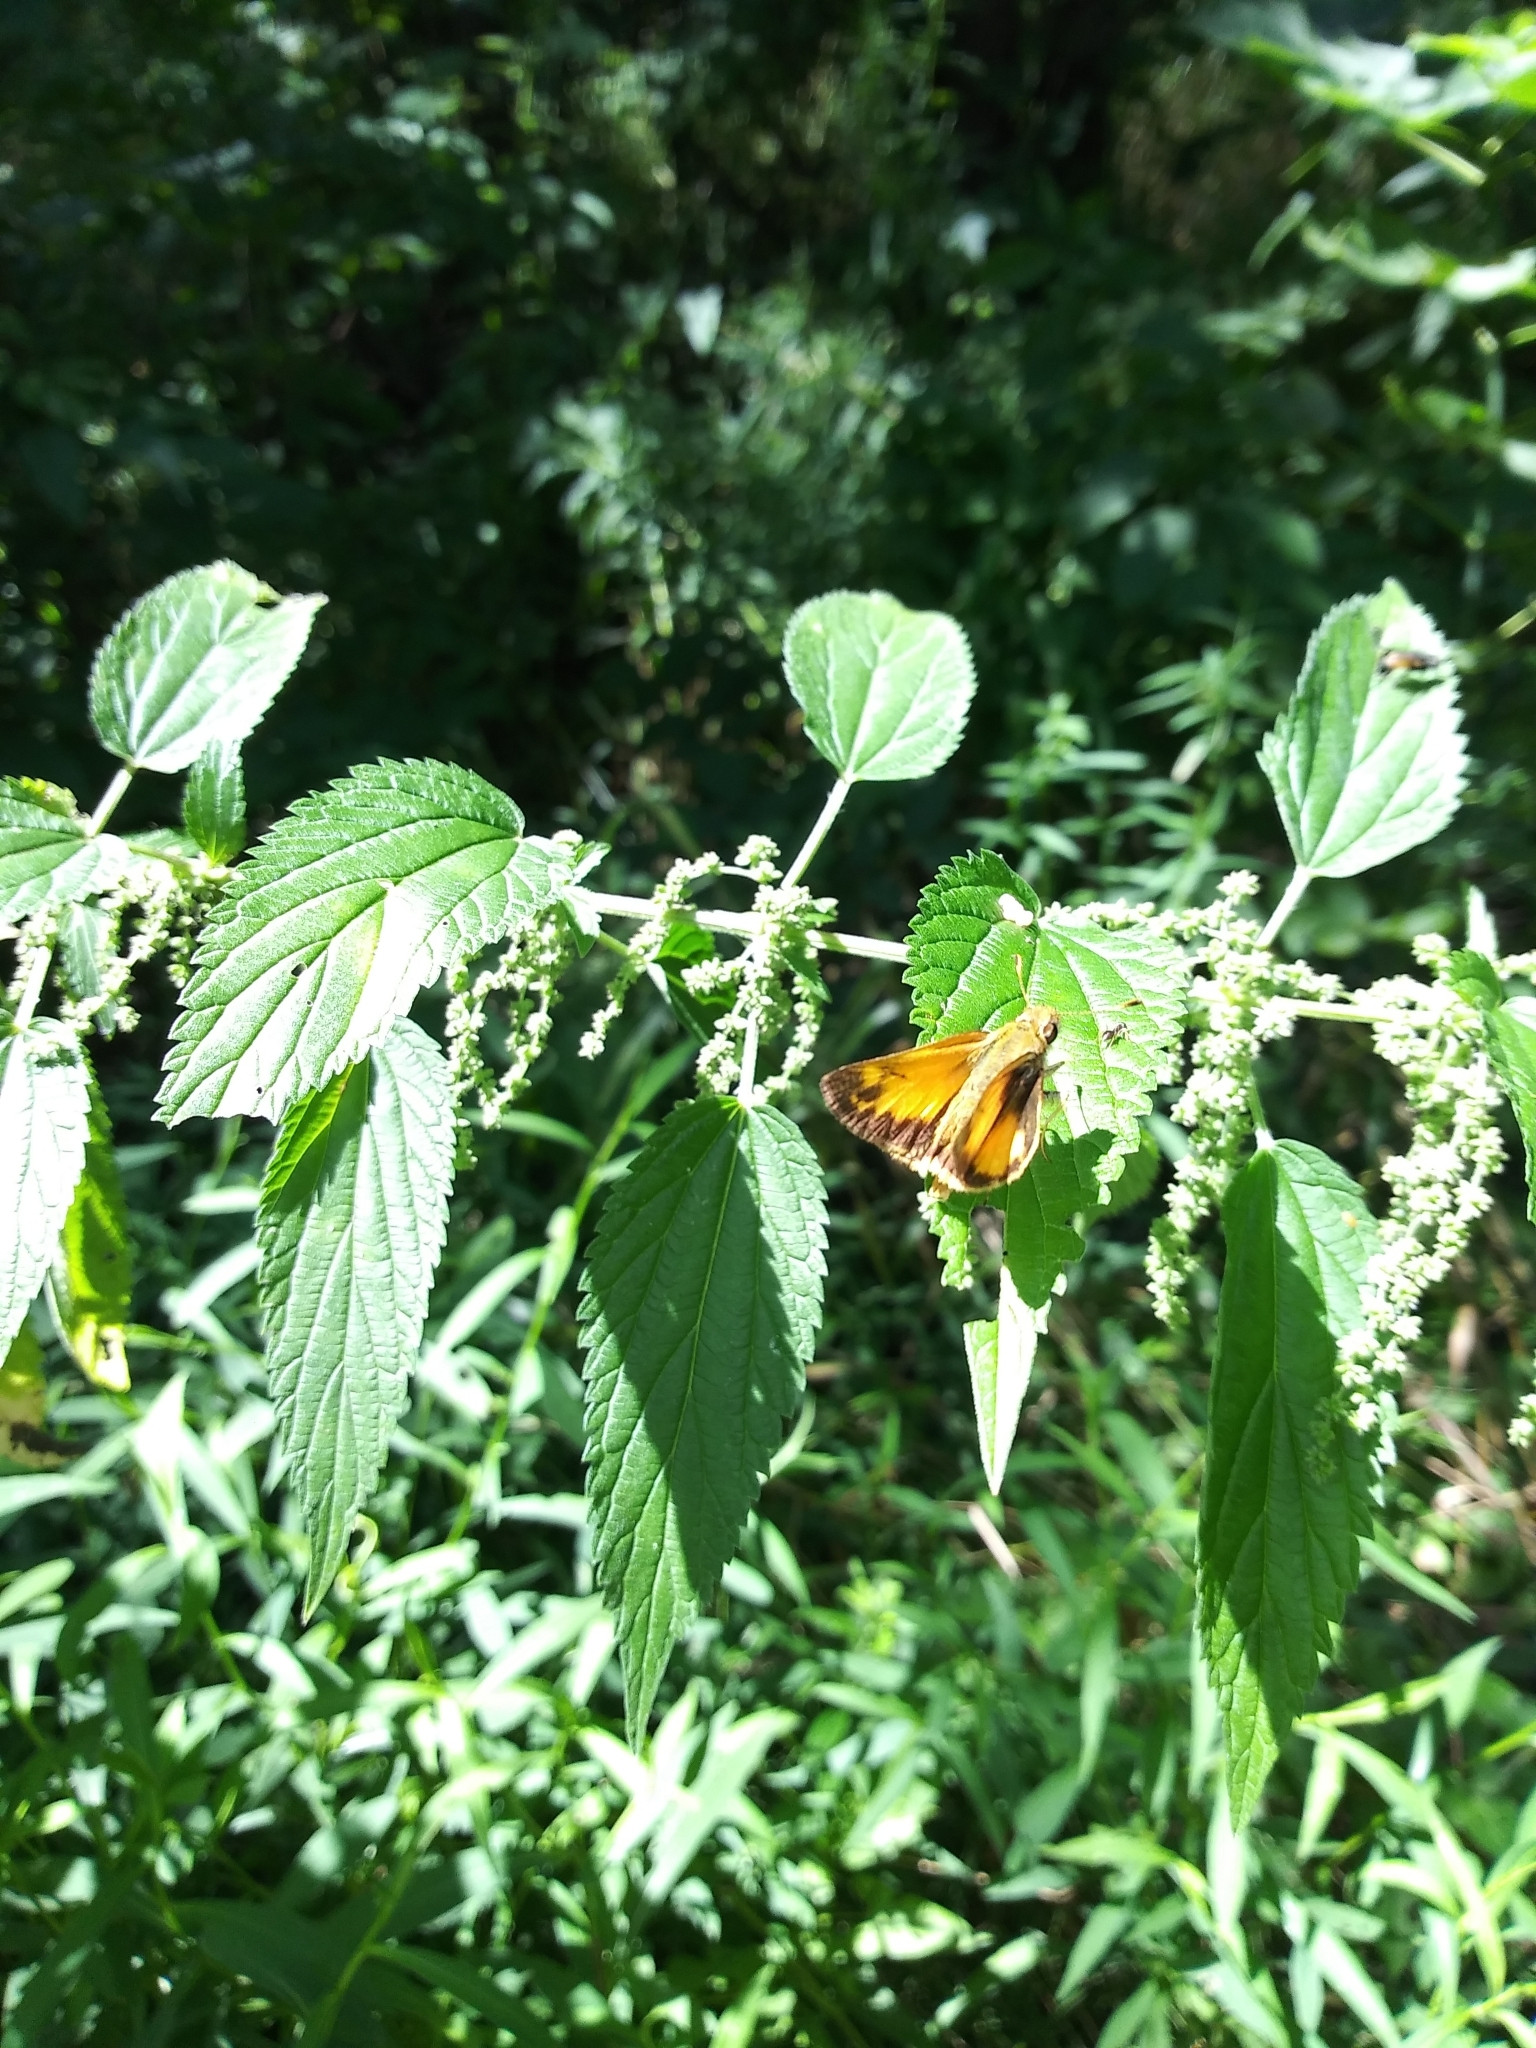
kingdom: Animalia
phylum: Arthropoda
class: Insecta
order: Lepidoptera
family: Hesperiidae
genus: Lon
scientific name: Lon zabulon
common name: Zabulon skipper
